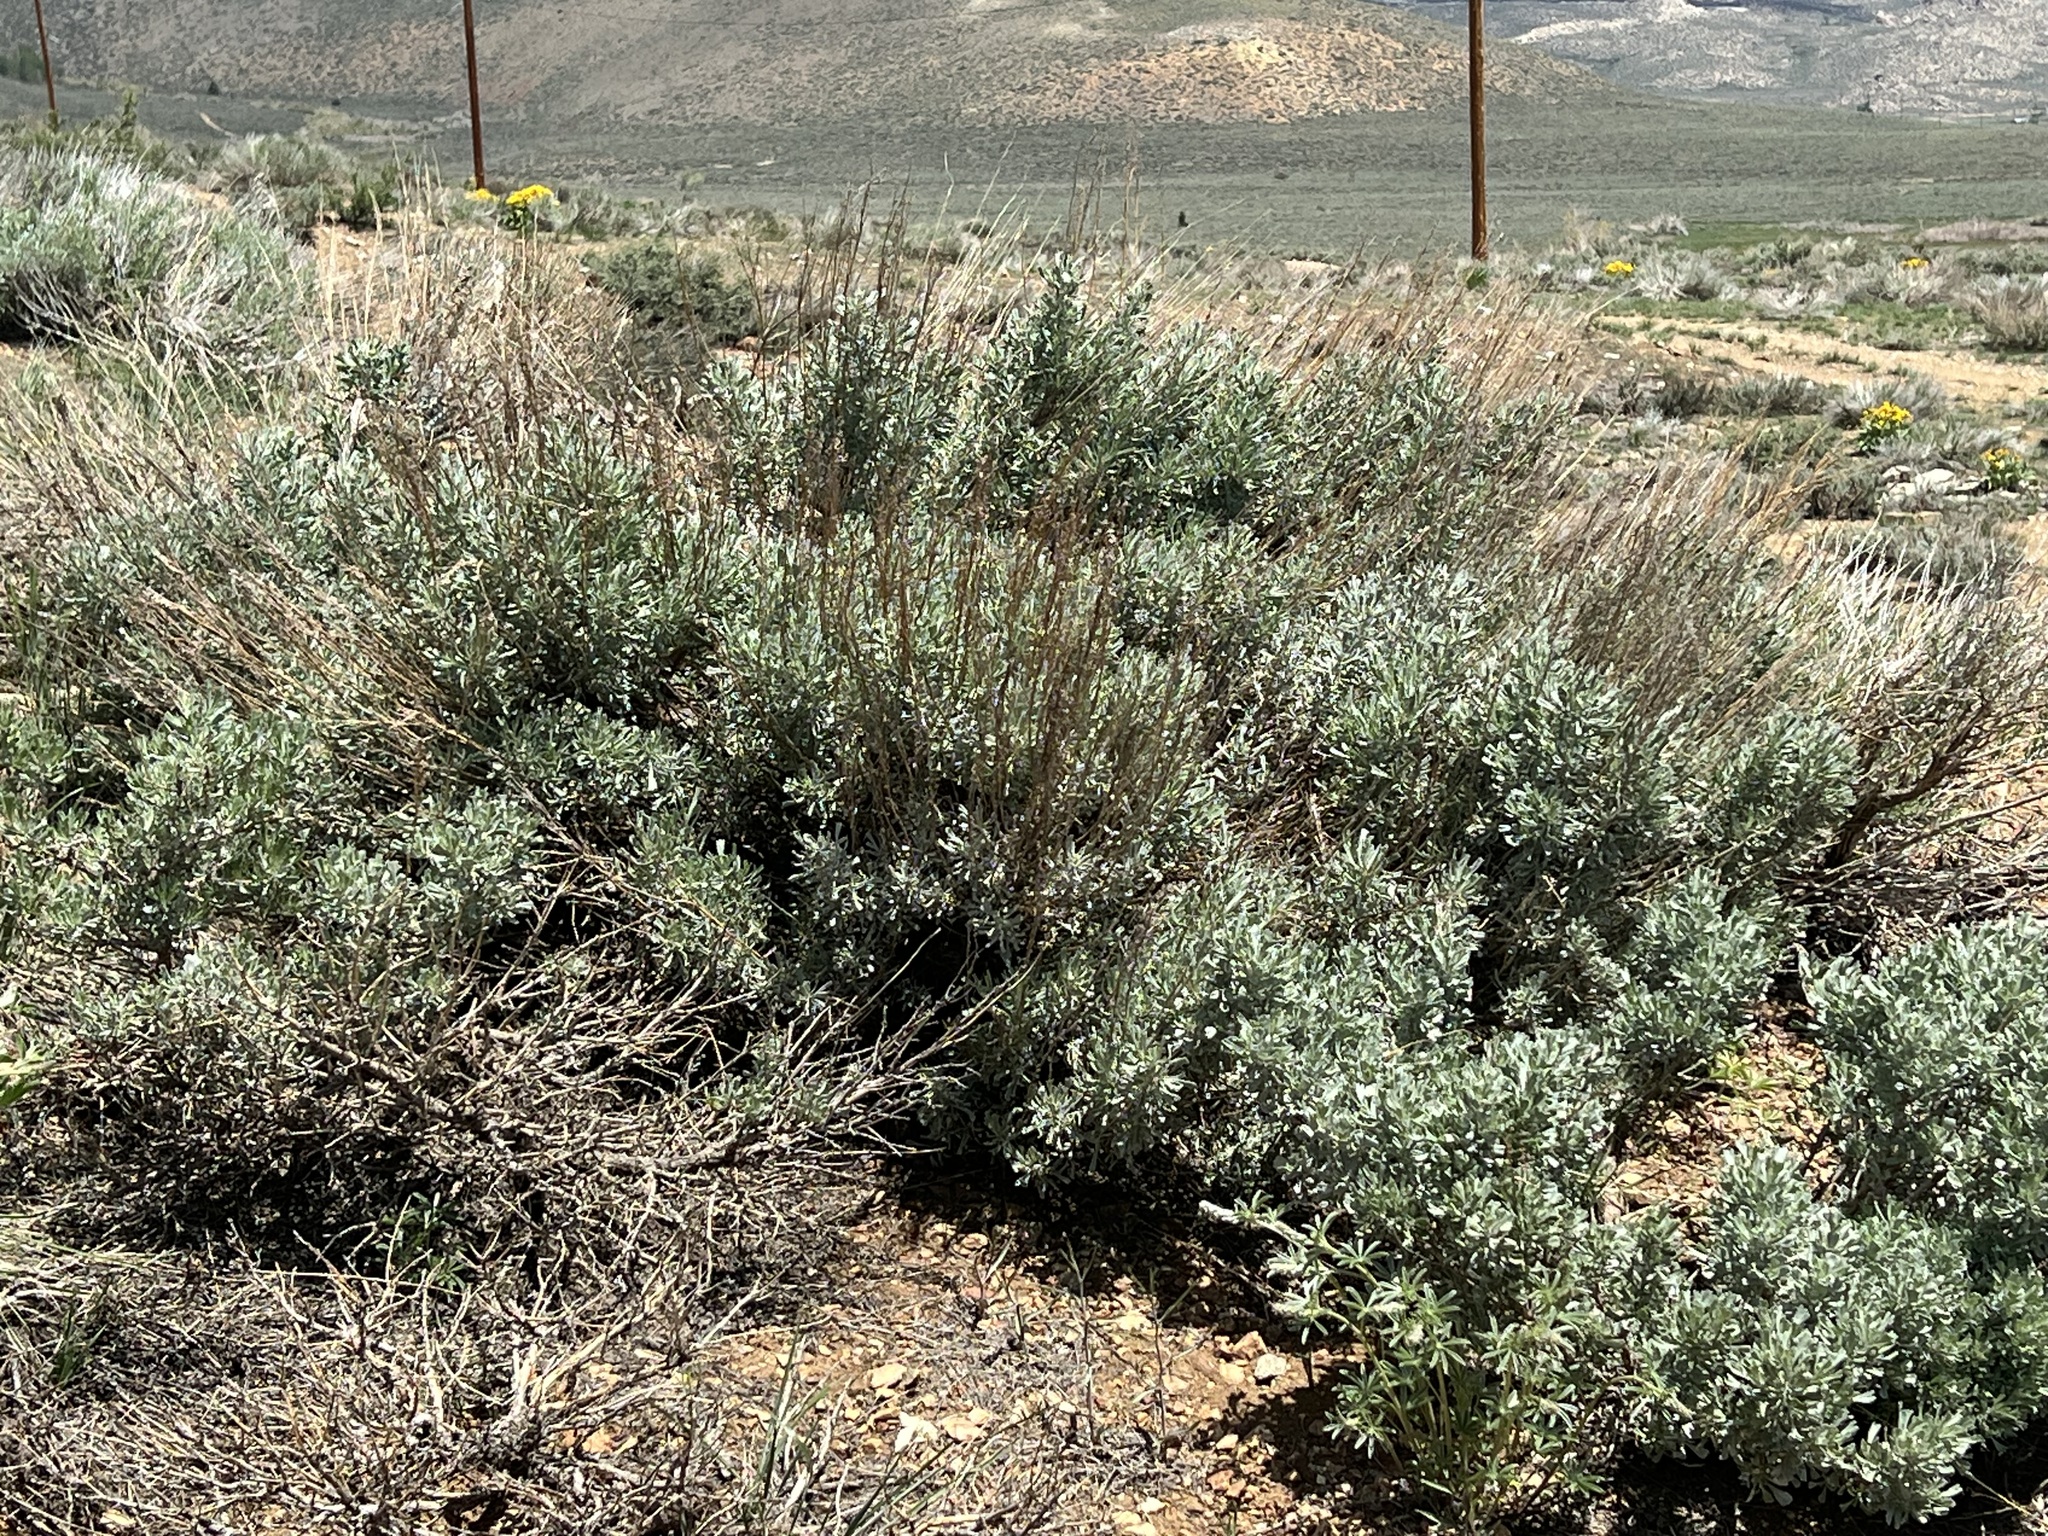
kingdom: Plantae
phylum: Tracheophyta
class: Magnoliopsida
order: Asterales
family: Asteraceae
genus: Artemisia
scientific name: Artemisia tridentata
